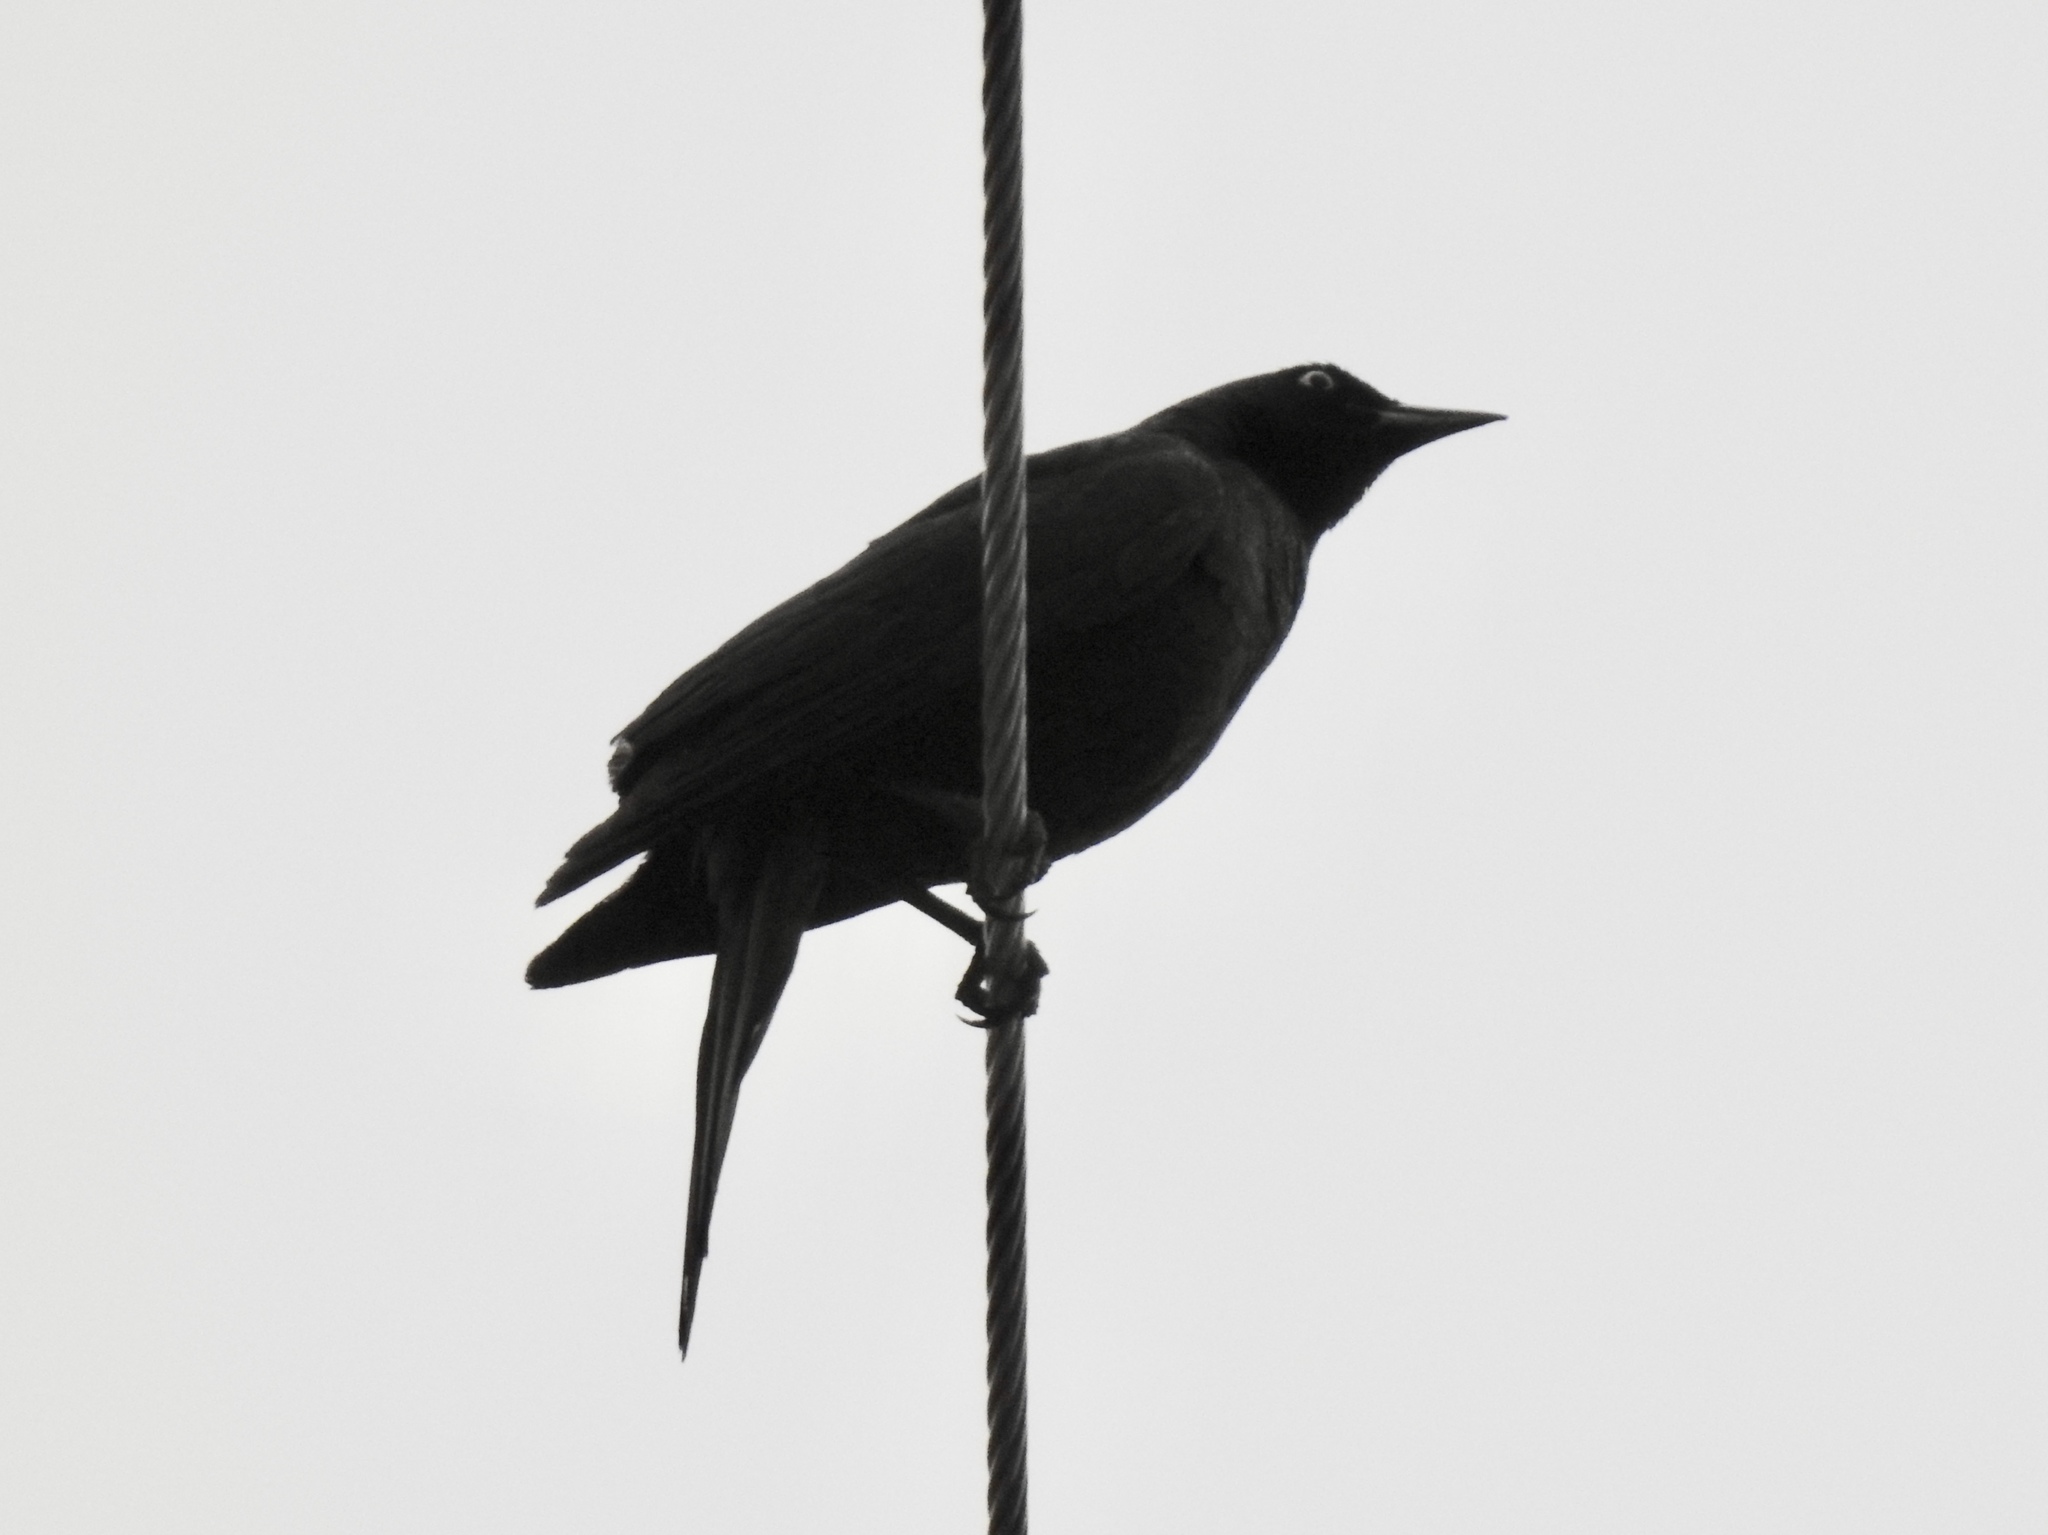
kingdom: Animalia
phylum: Chordata
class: Aves
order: Passeriformes
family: Icteridae
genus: Euphagus
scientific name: Euphagus cyanocephalus
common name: Brewer's blackbird
